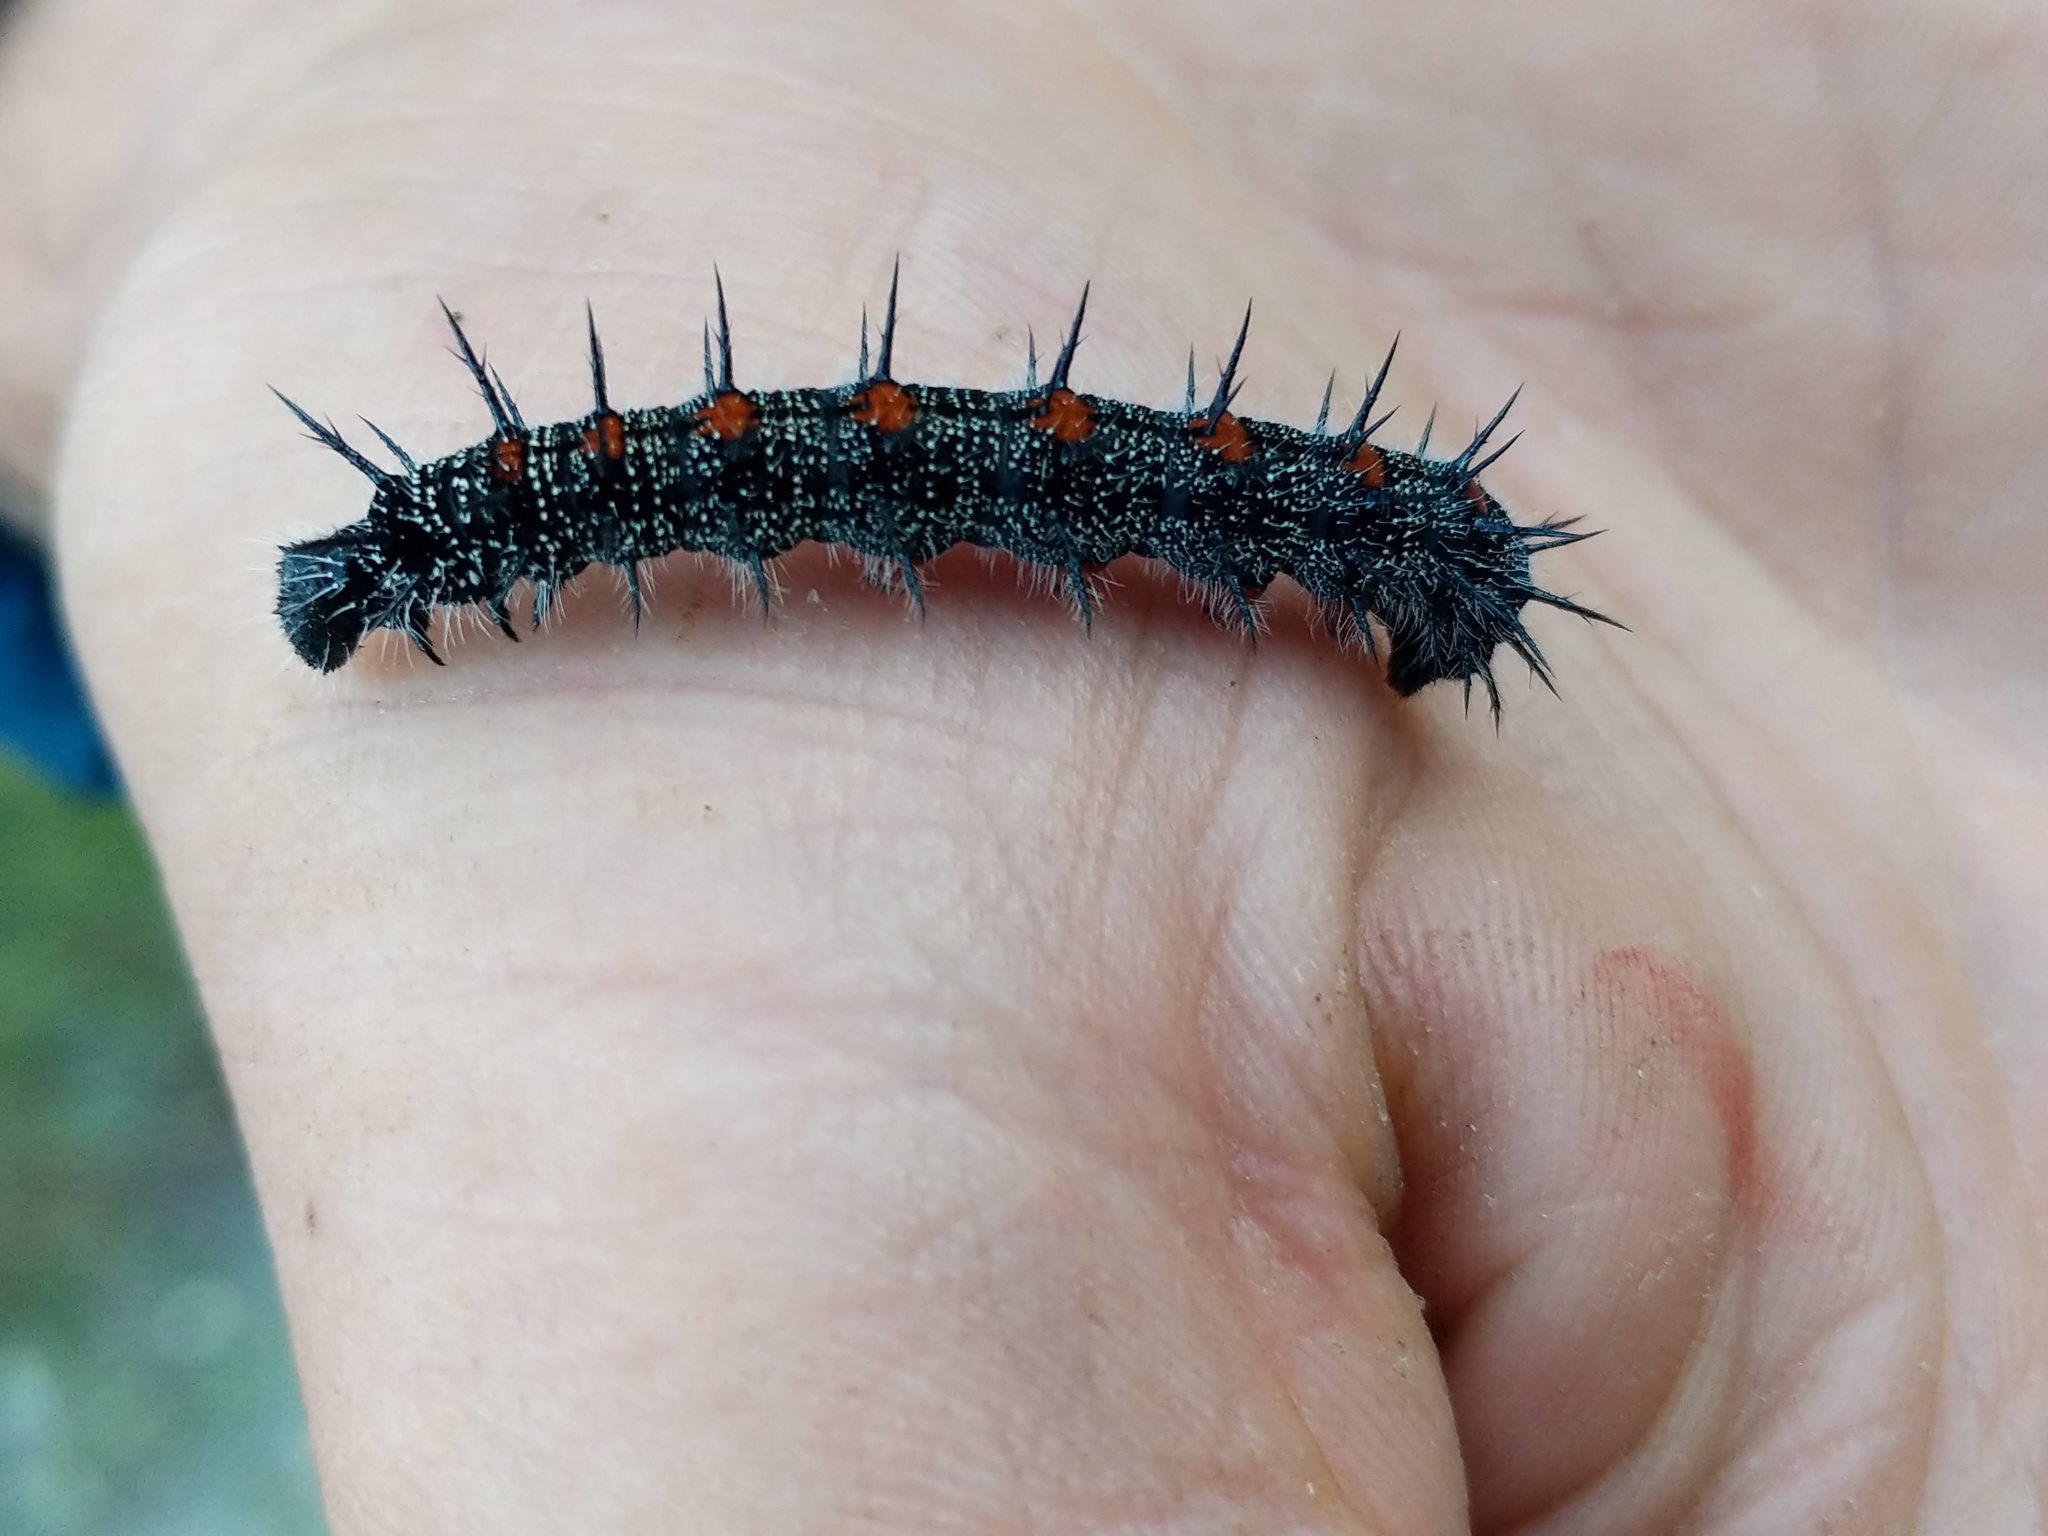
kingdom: Animalia
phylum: Arthropoda
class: Insecta
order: Lepidoptera
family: Nymphalidae
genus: Nymphalis
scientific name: Nymphalis antiopa
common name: Camberwell beauty
